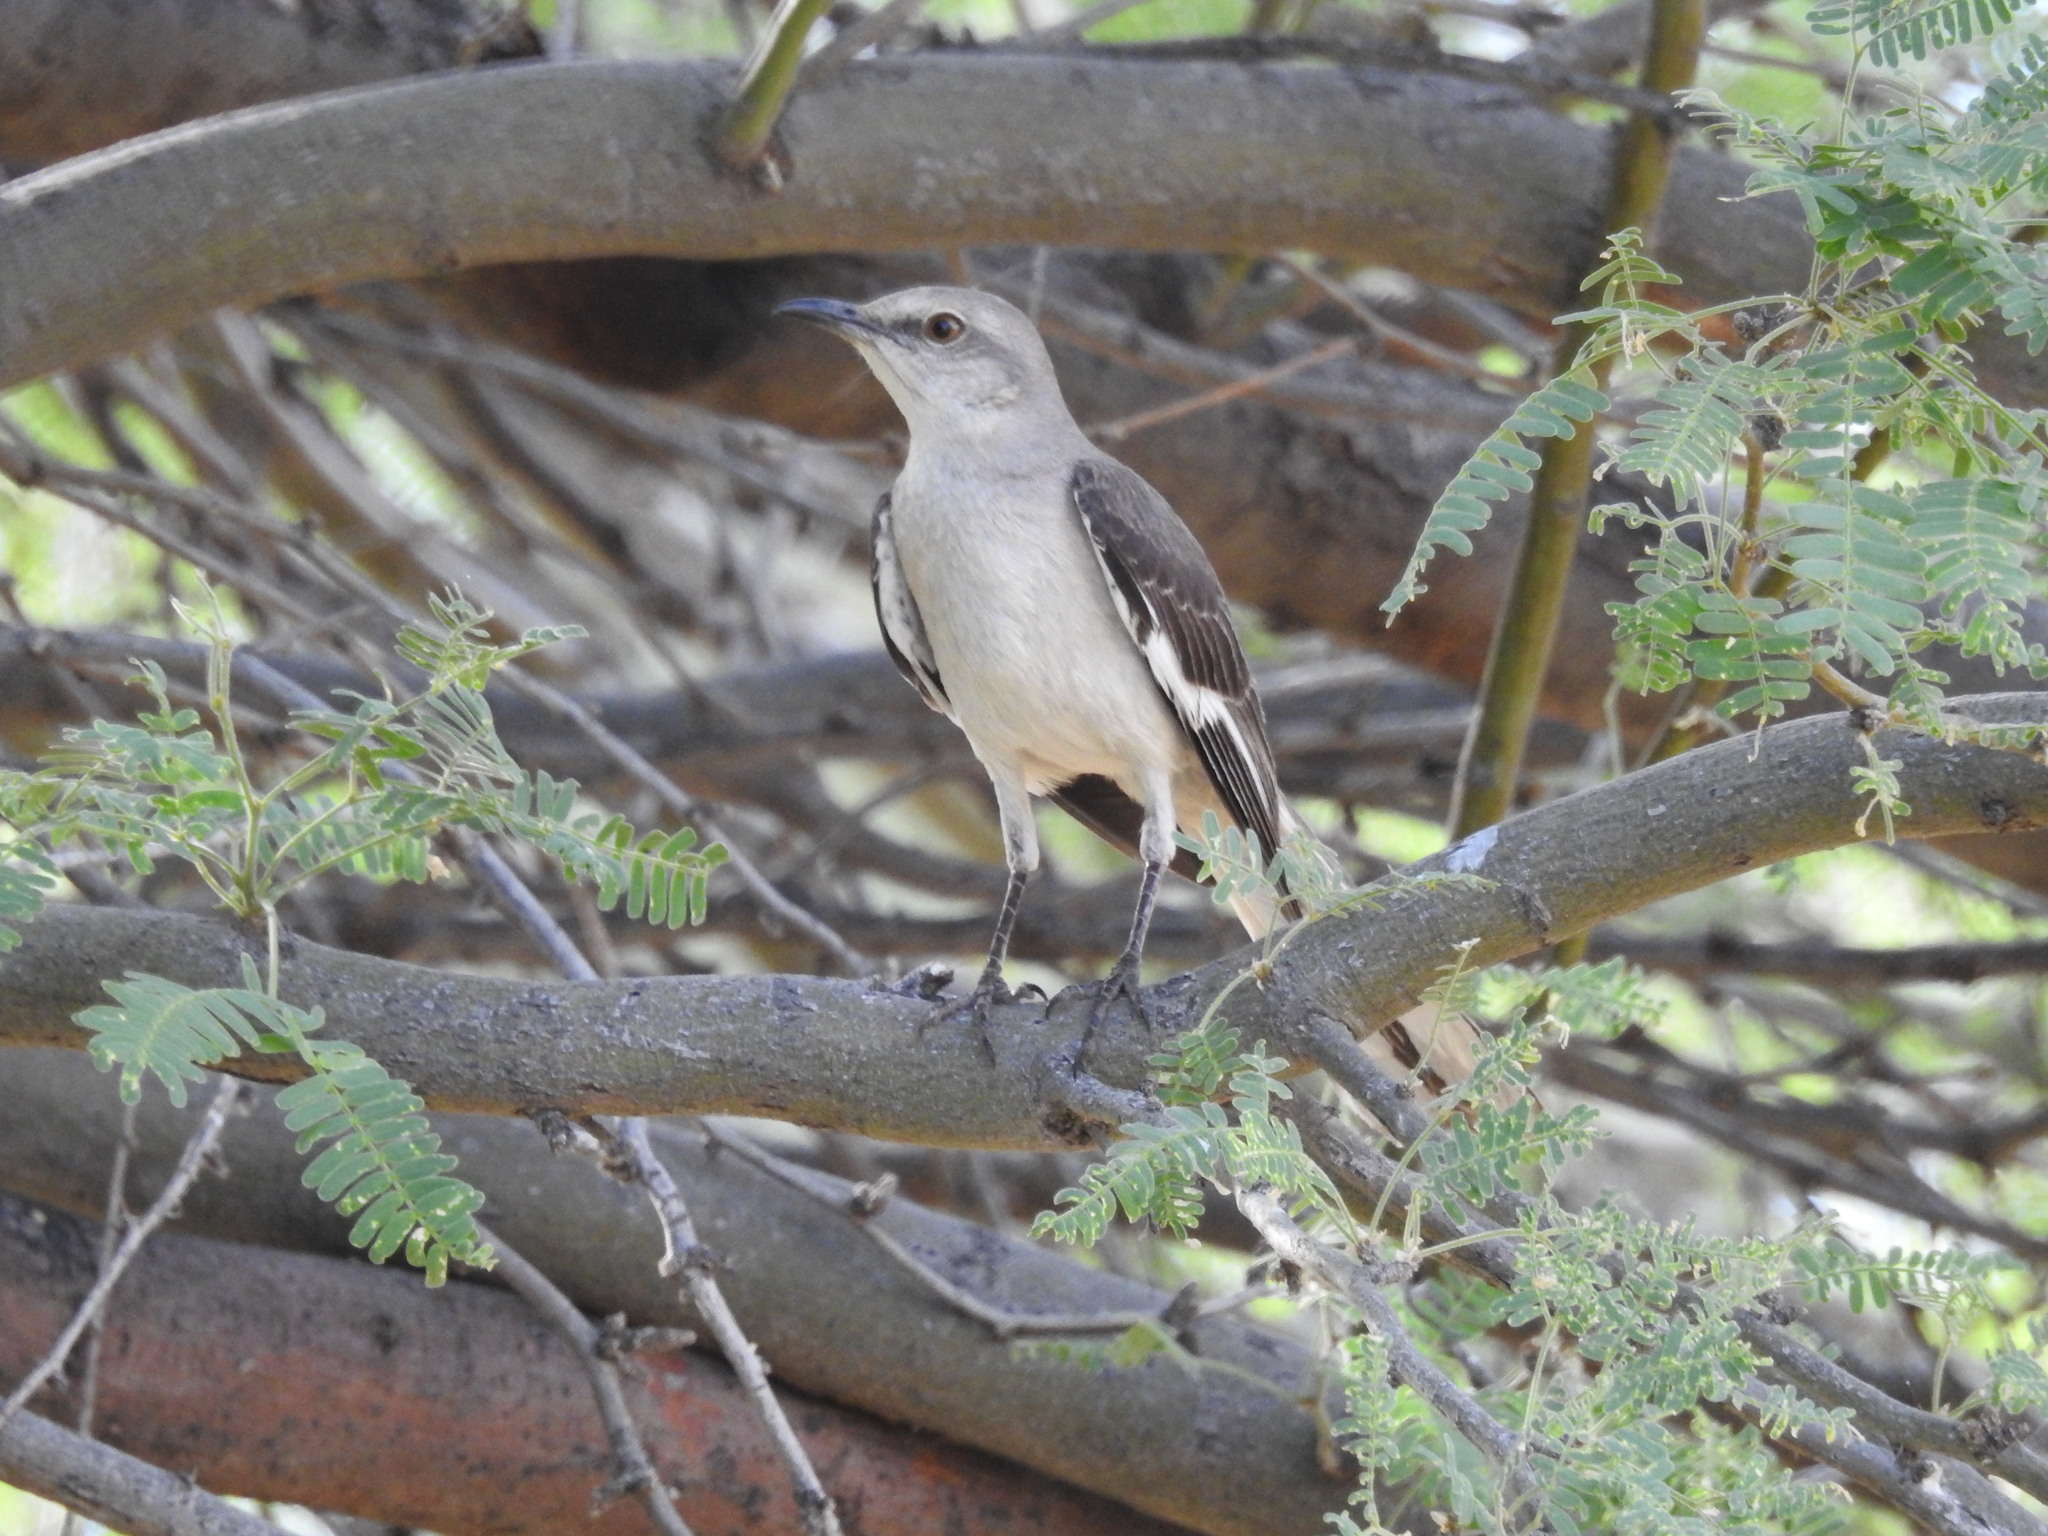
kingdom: Animalia
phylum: Chordata
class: Aves
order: Passeriformes
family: Mimidae
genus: Mimus
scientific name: Mimus polyglottos
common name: Northern mockingbird
